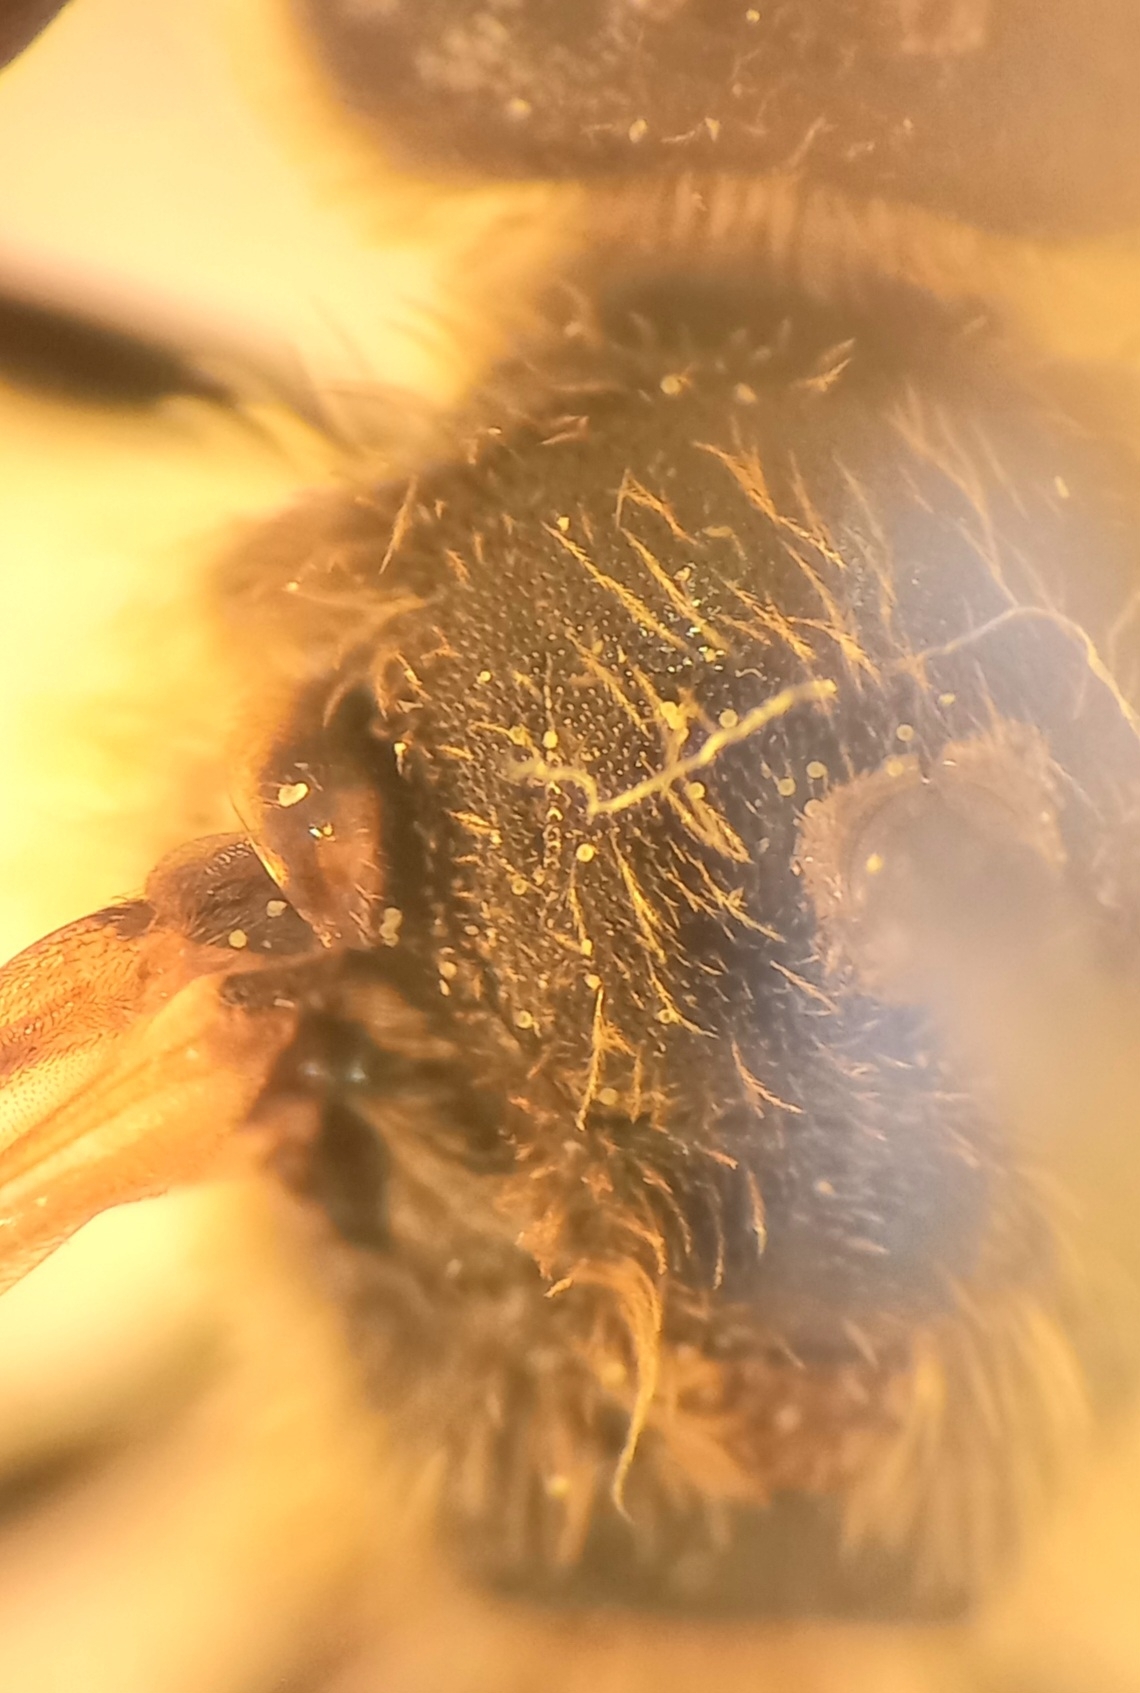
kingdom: Animalia
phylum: Arthropoda
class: Insecta
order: Hymenoptera
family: Halictidae
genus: Lasioglossum
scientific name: Lasioglossum calceatum
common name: Common furrow bee
